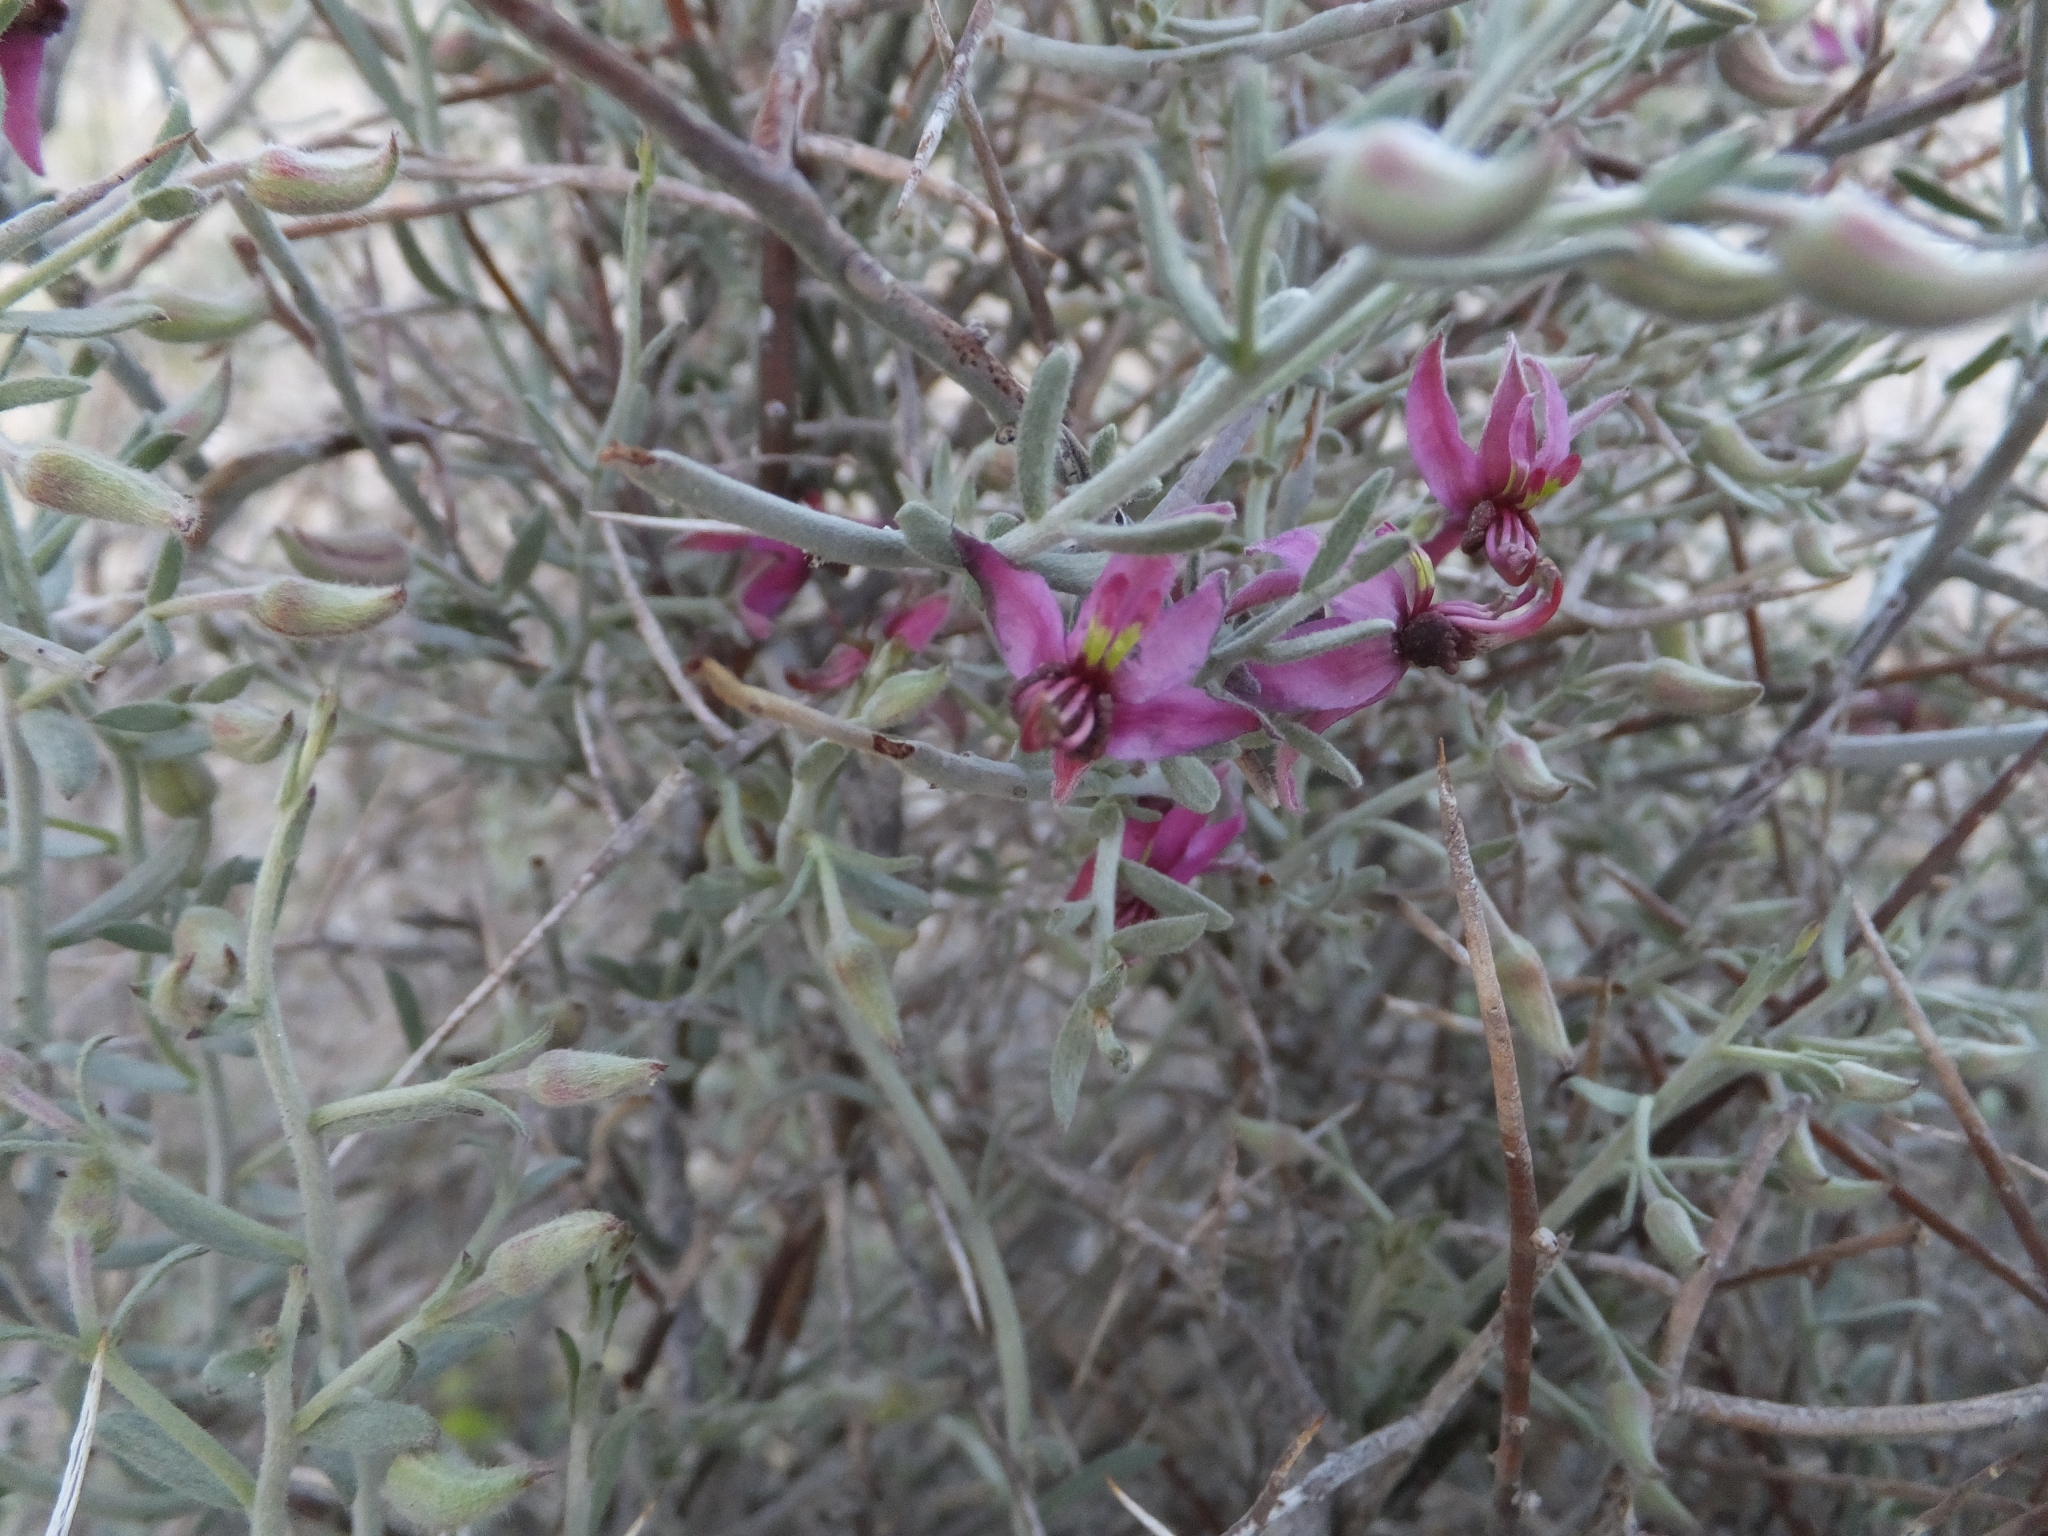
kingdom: Plantae
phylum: Tracheophyta
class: Magnoliopsida
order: Zygophyllales
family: Krameriaceae
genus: Krameria
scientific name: Krameria bicolor
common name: White ratany
